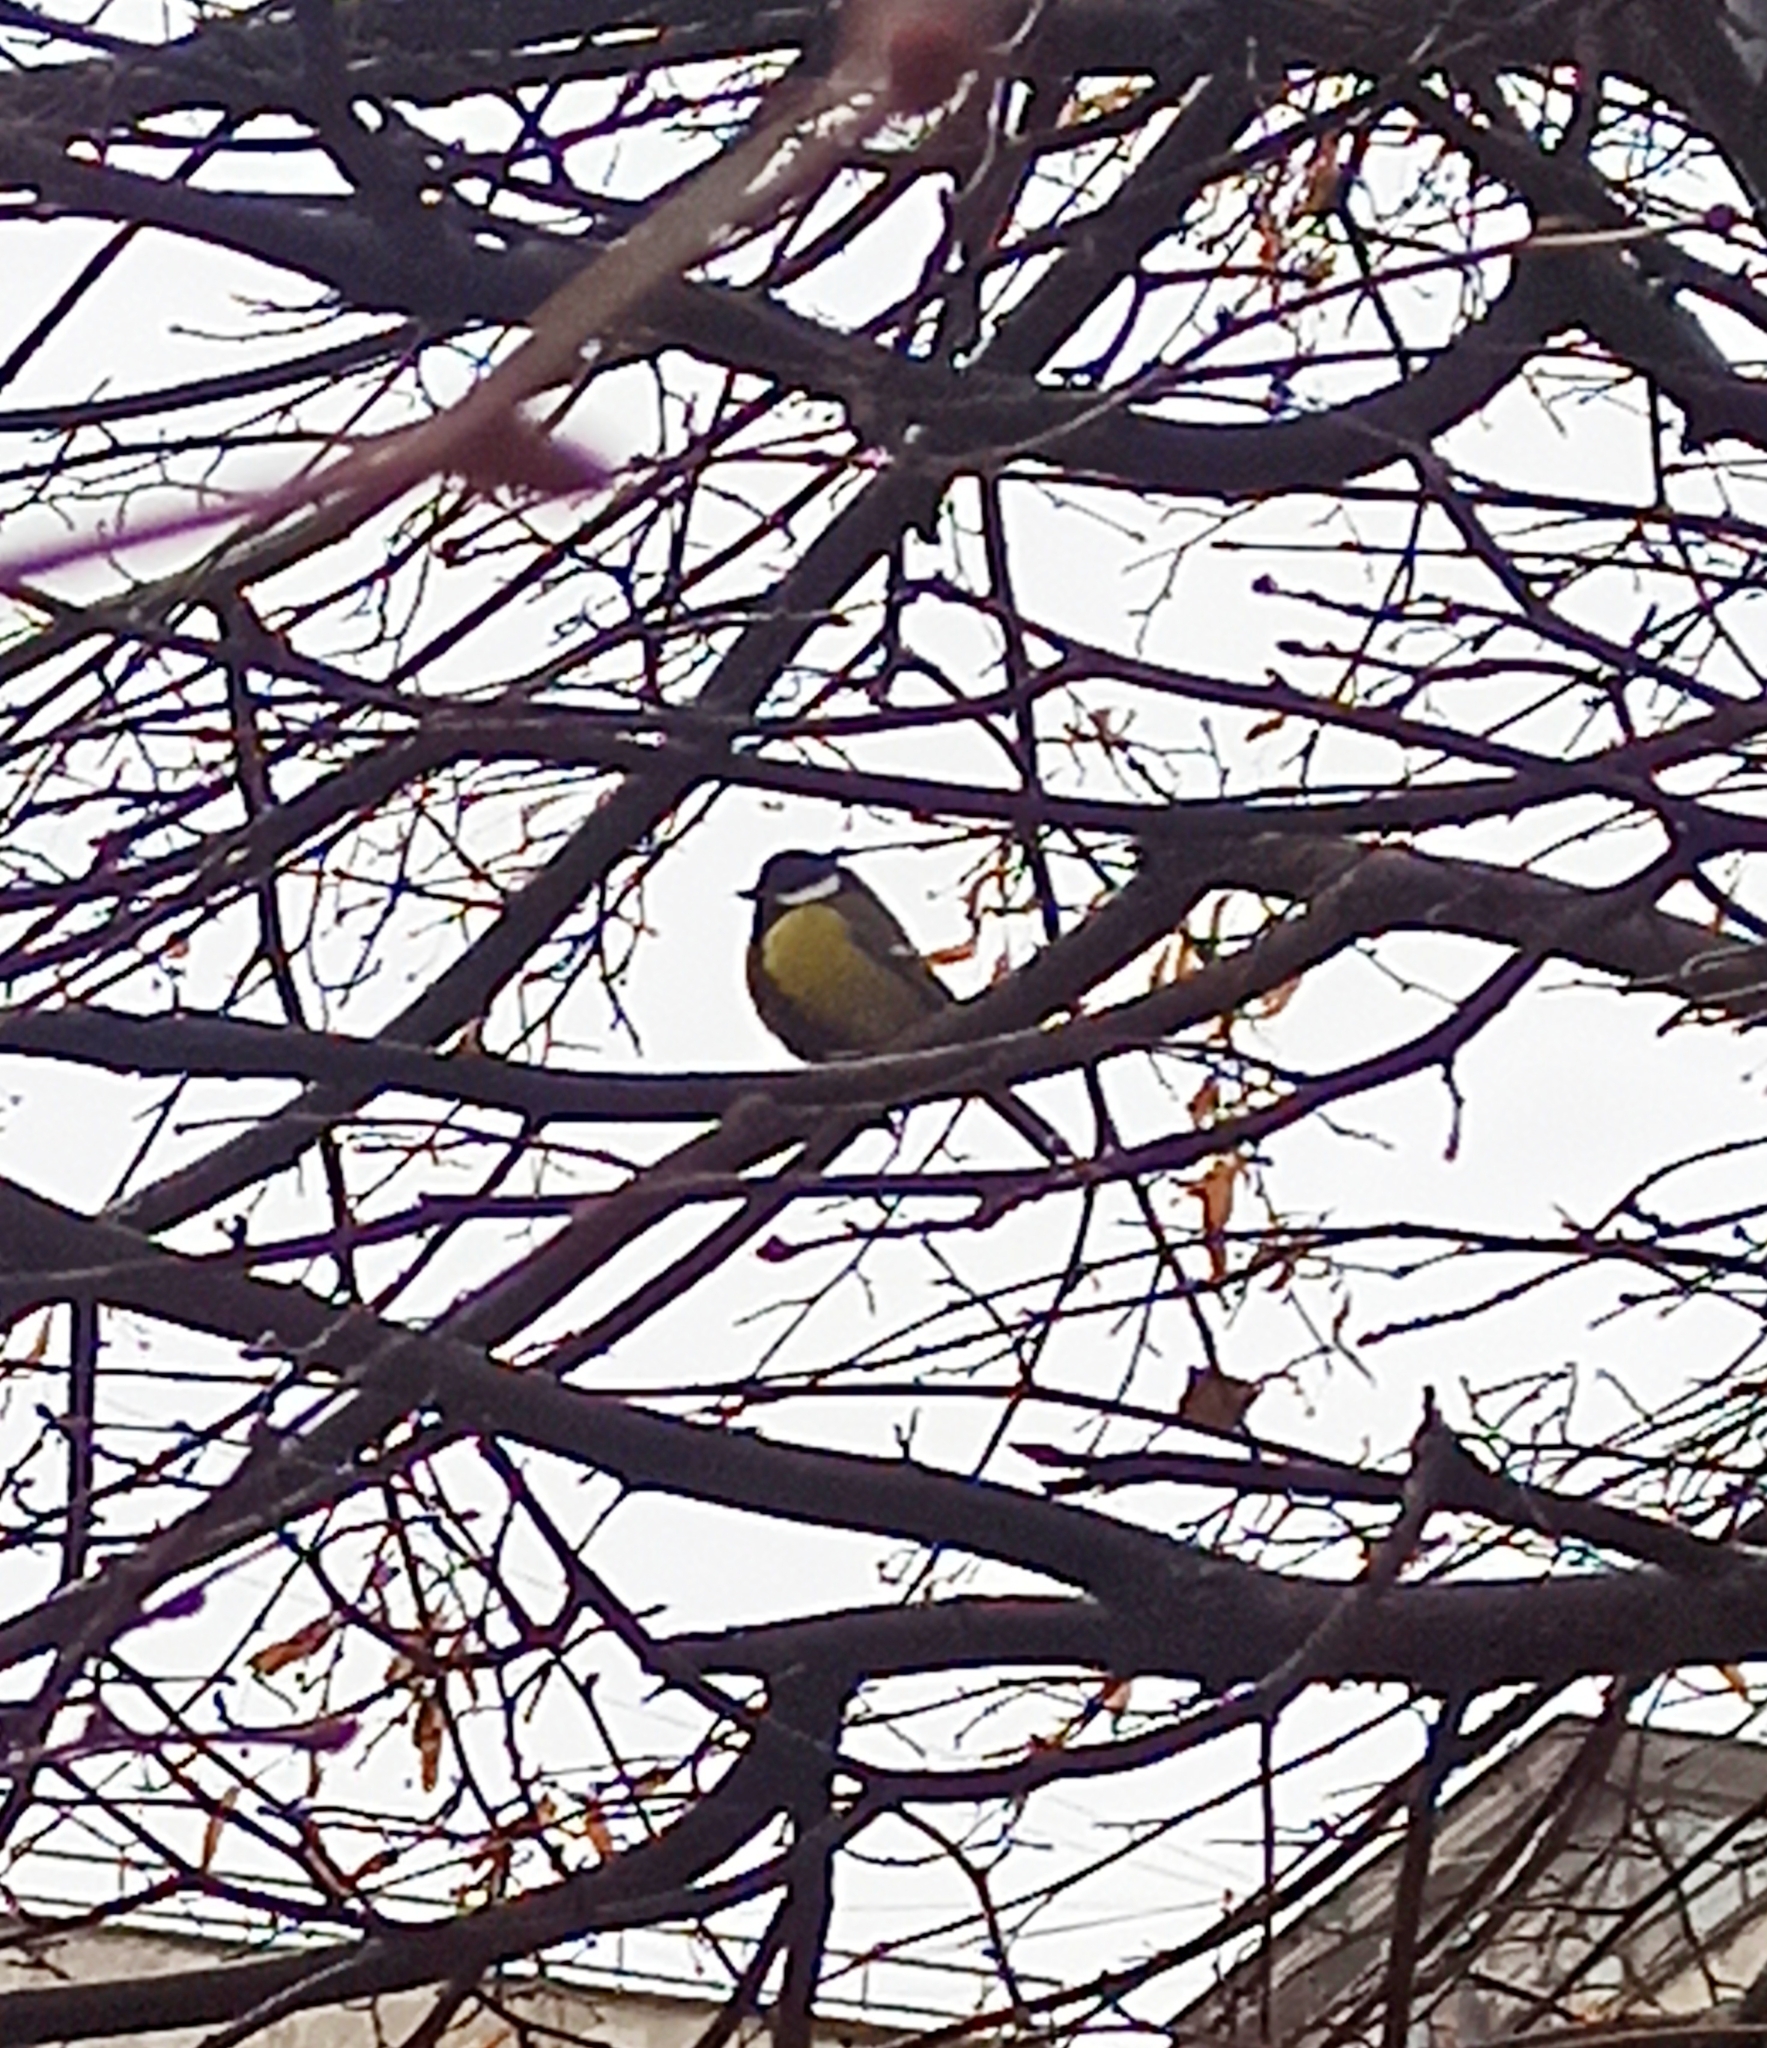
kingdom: Animalia
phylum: Chordata
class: Aves
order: Passeriformes
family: Paridae
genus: Parus
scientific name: Parus major
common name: Great tit
